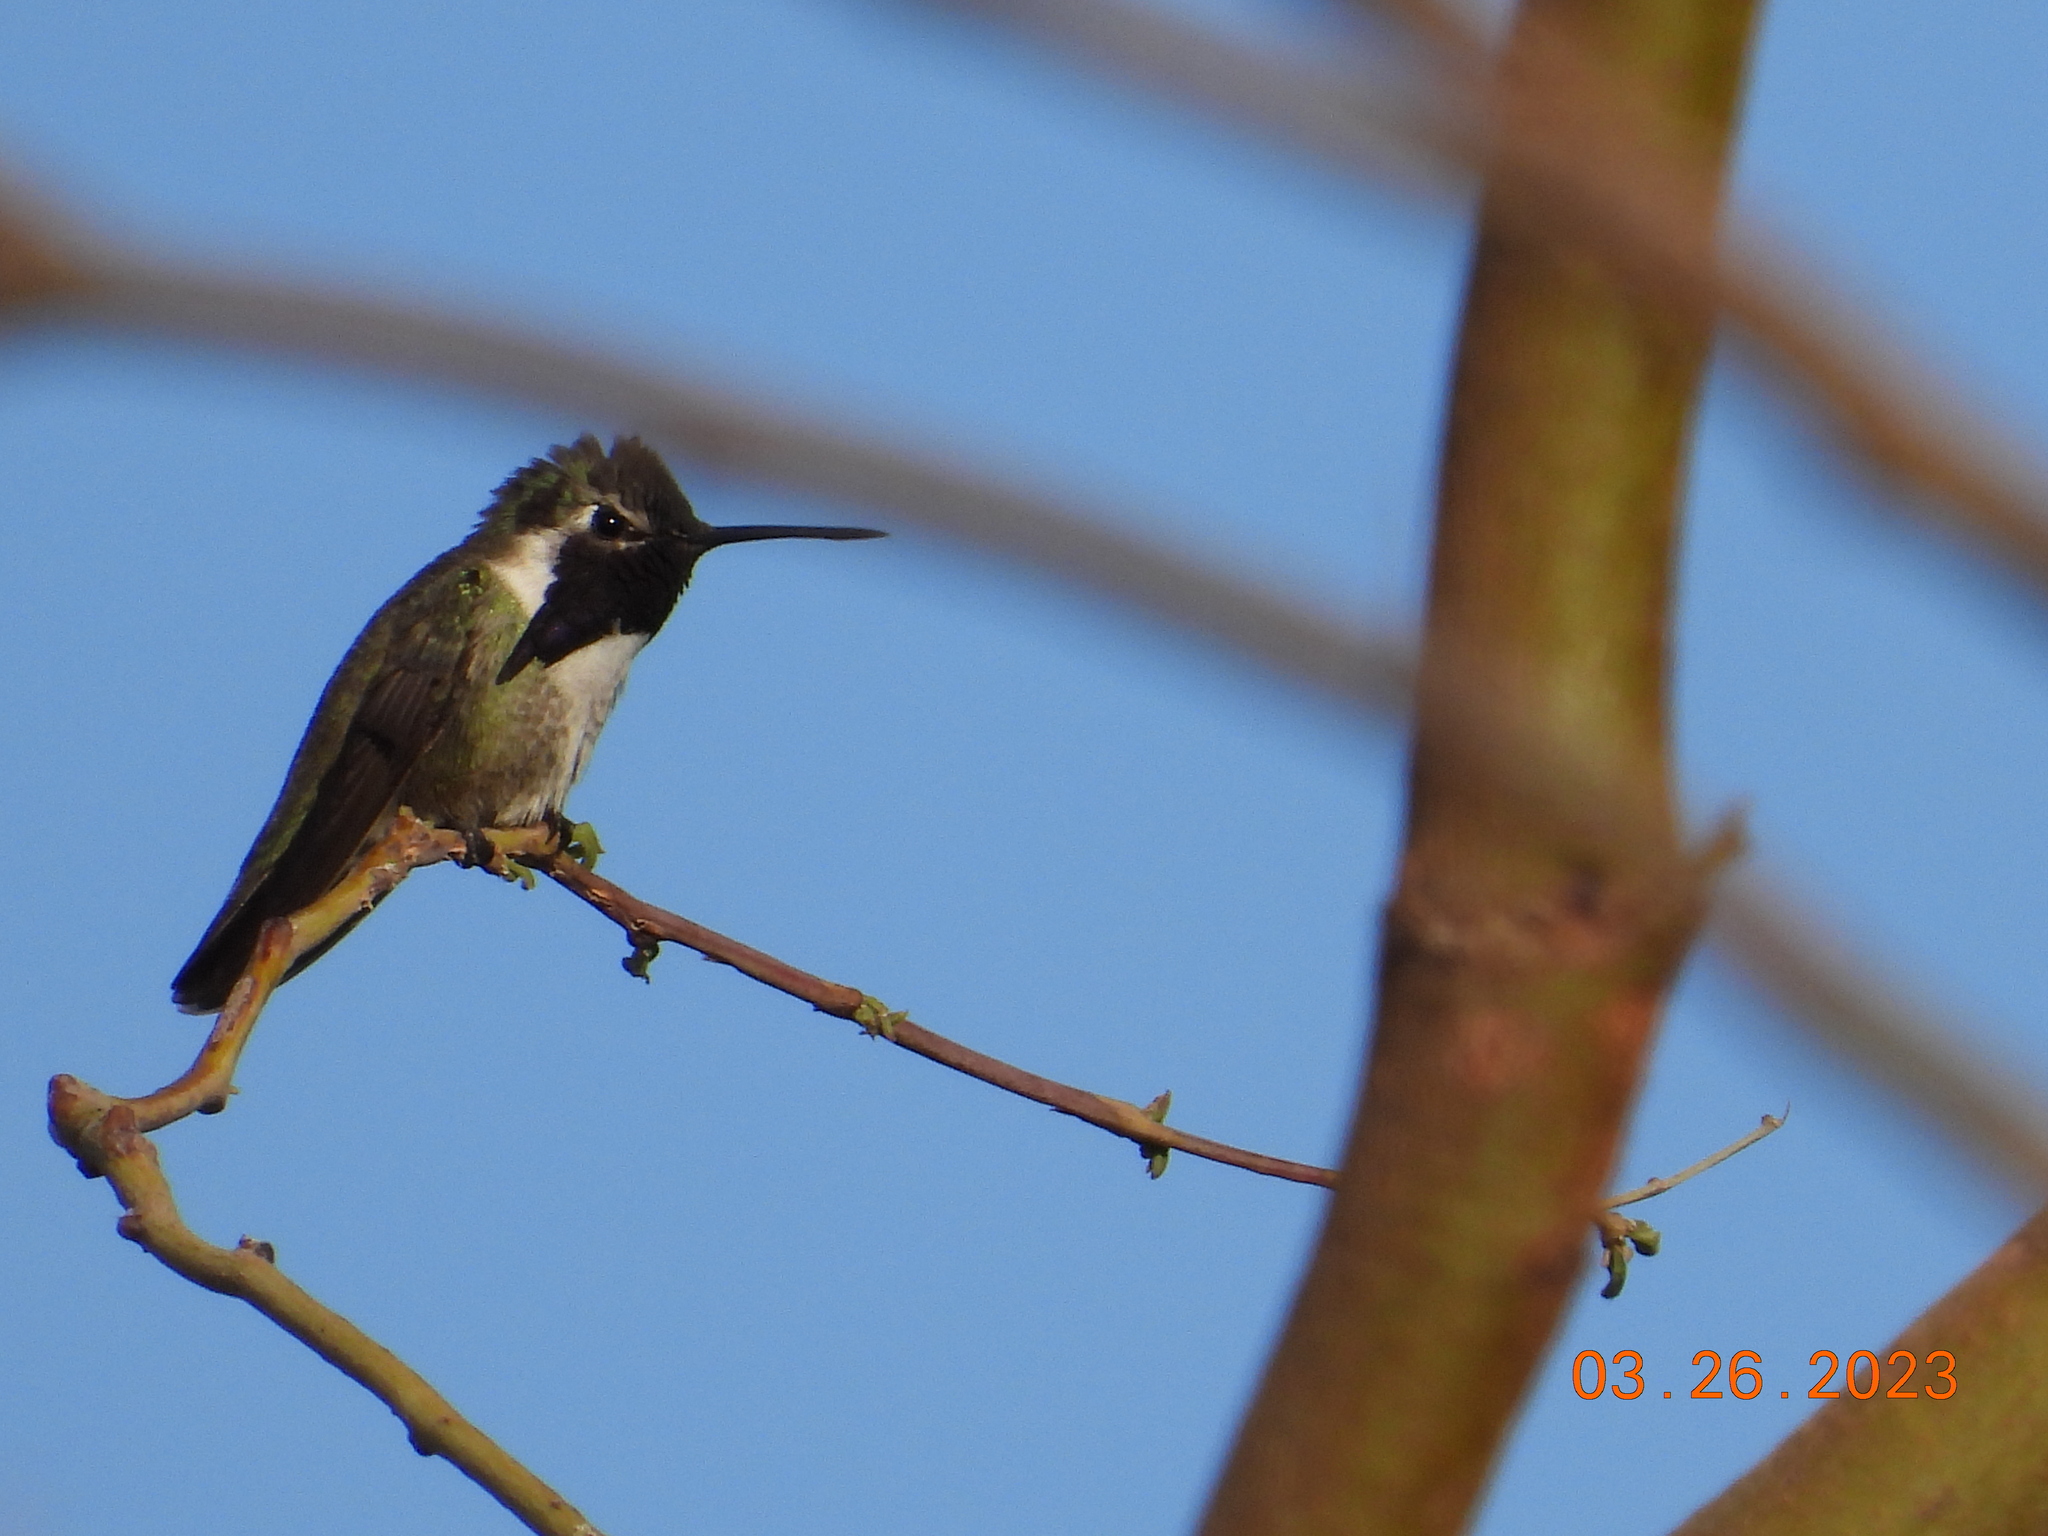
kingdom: Animalia
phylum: Chordata
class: Aves
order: Apodiformes
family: Trochilidae
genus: Calypte
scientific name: Calypte costae
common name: Costa's hummingbird
